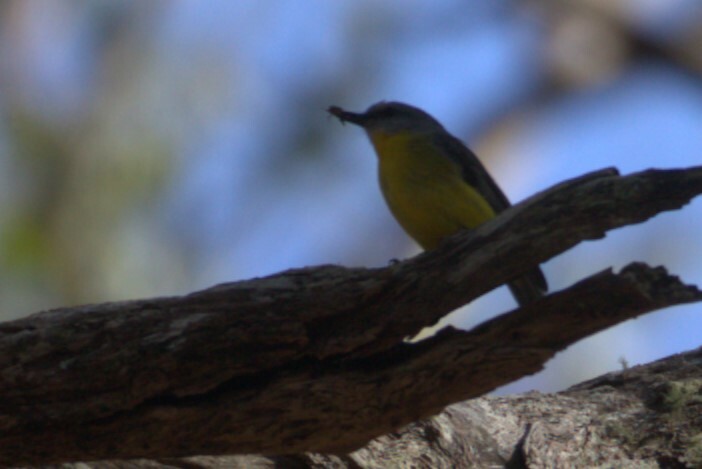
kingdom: Animalia
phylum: Chordata
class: Aves
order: Passeriformes
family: Petroicidae
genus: Eopsaltria
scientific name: Eopsaltria australis
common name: Eastern yellow robin
